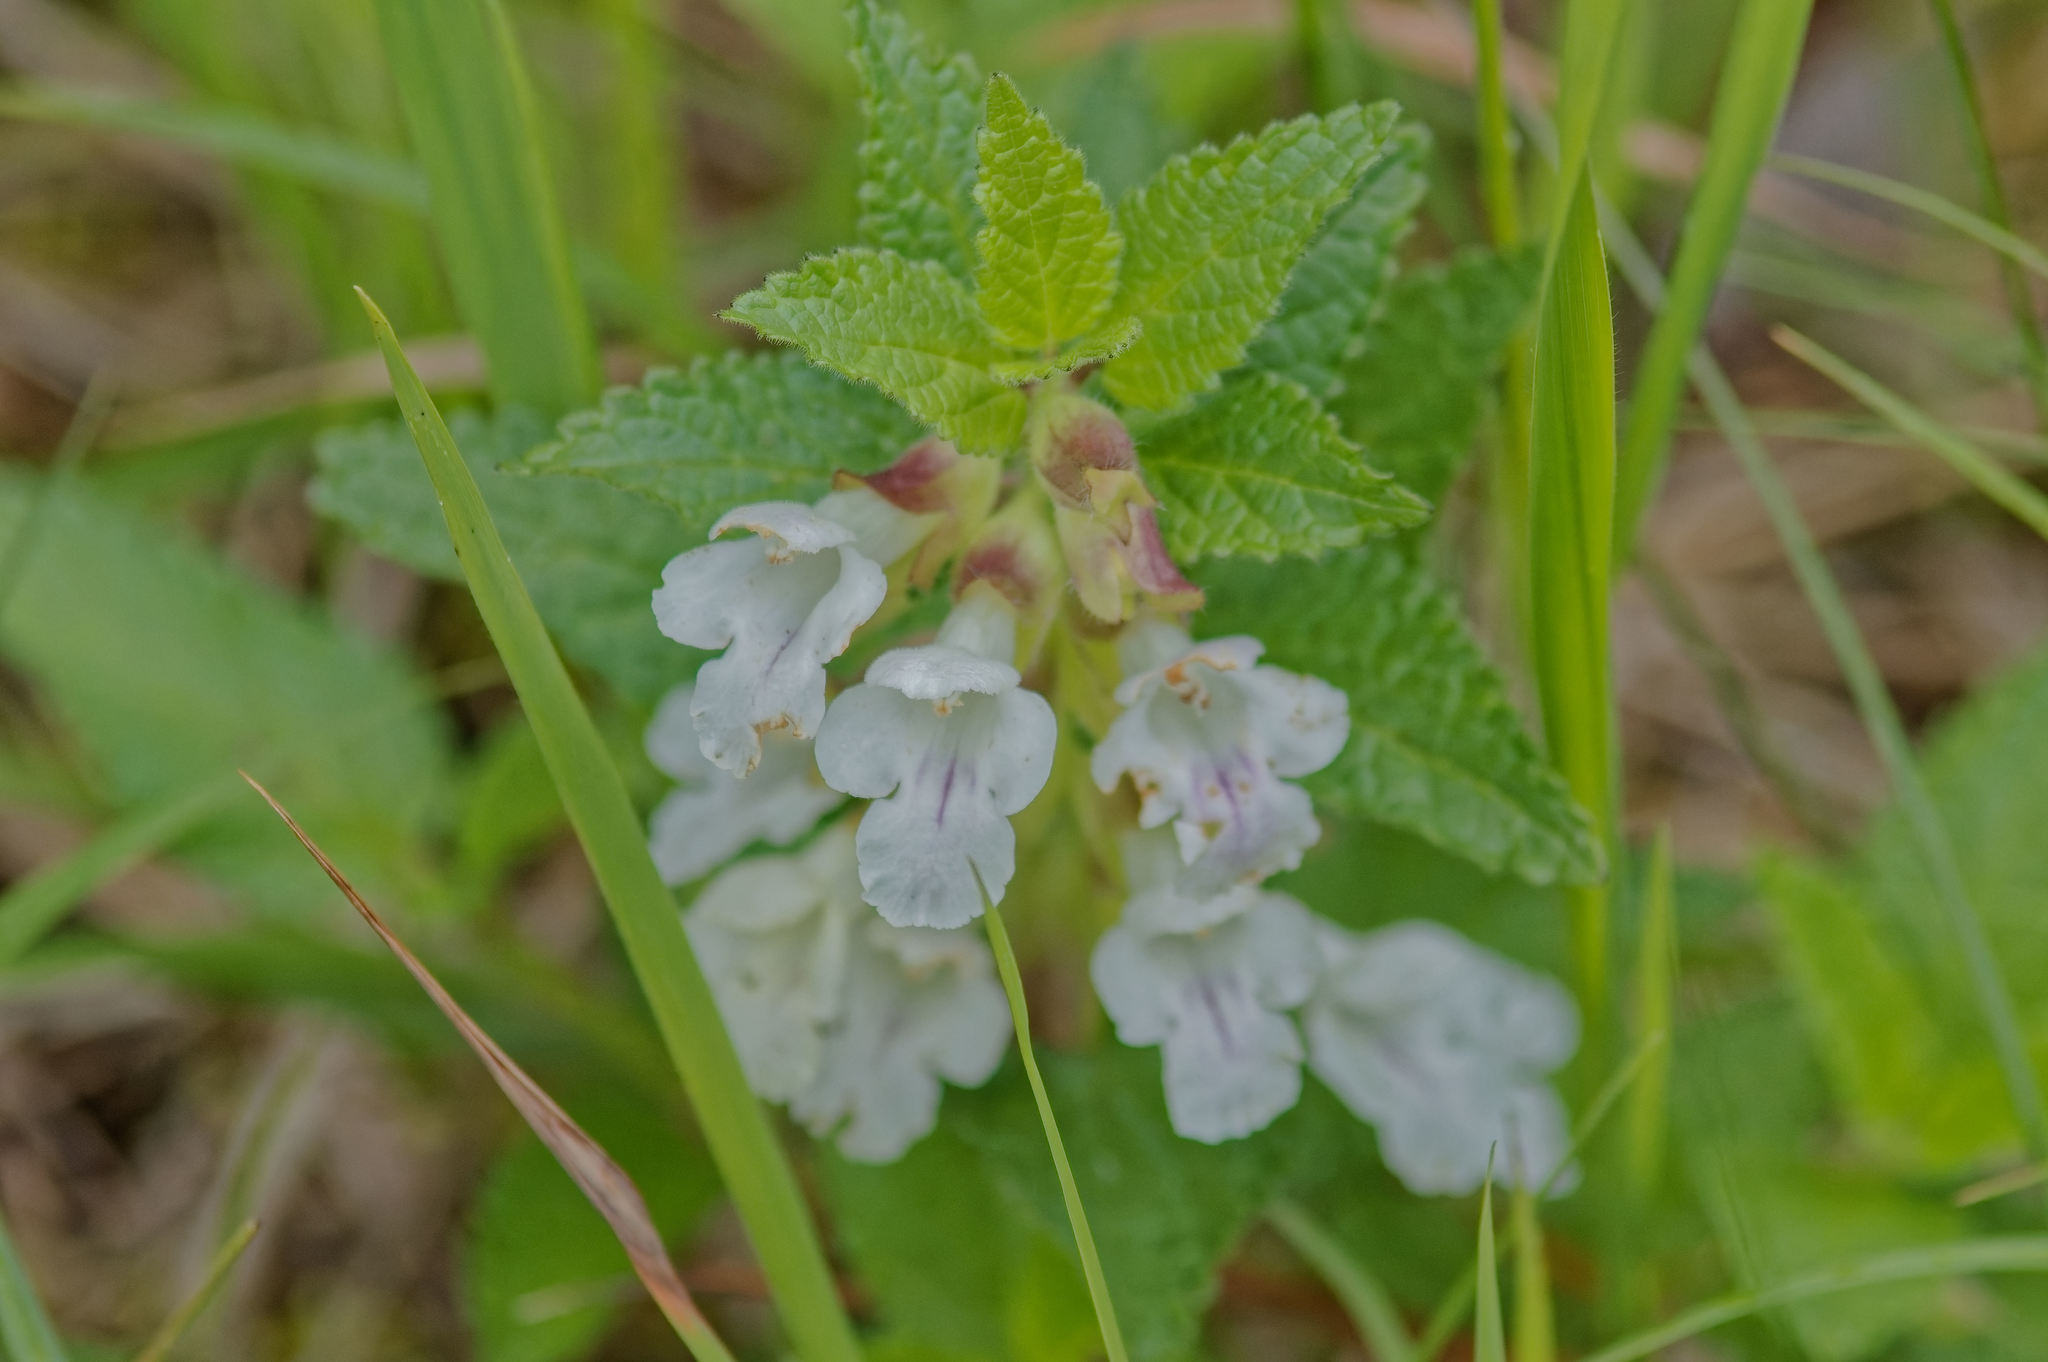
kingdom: Plantae
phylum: Tracheophyta
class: Magnoliopsida
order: Lamiales
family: Lamiaceae
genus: Melittis
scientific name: Melittis melissophyllum
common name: Bastard balm
